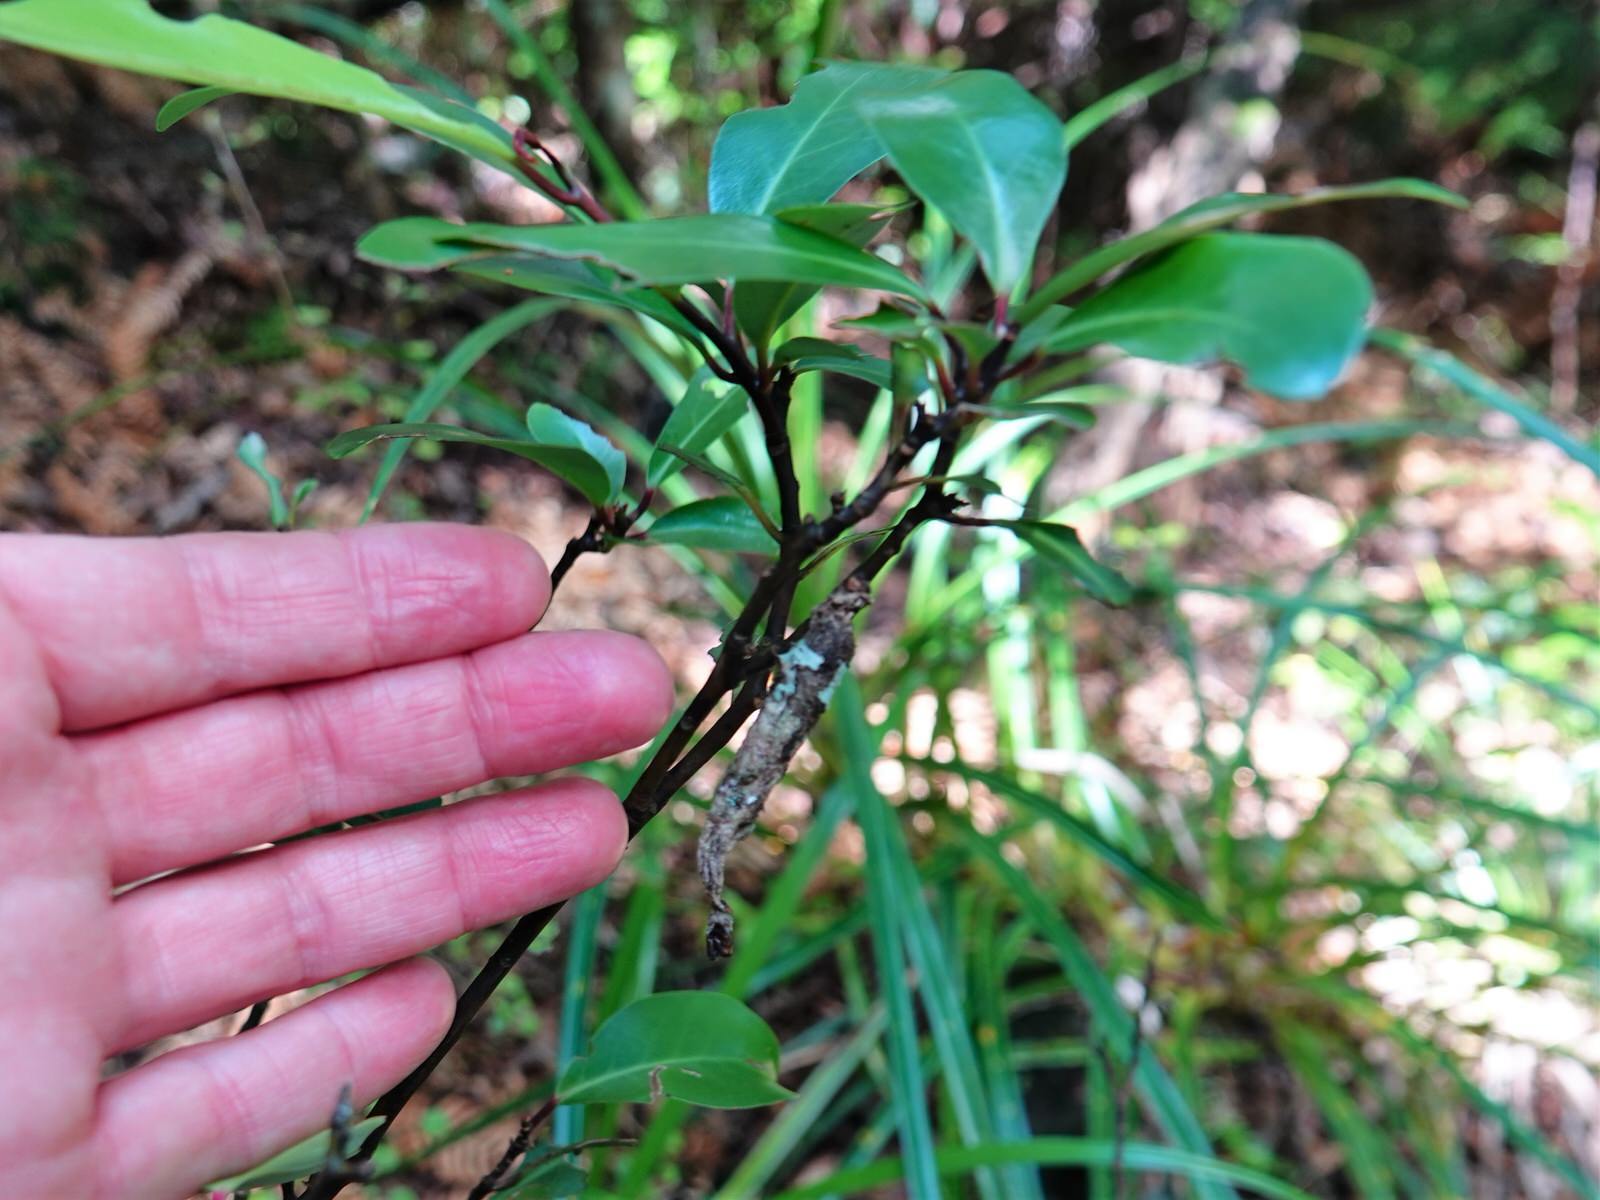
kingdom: Animalia
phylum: Arthropoda
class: Insecta
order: Lepidoptera
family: Psychidae
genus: Liothula
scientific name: Liothula omnivora
